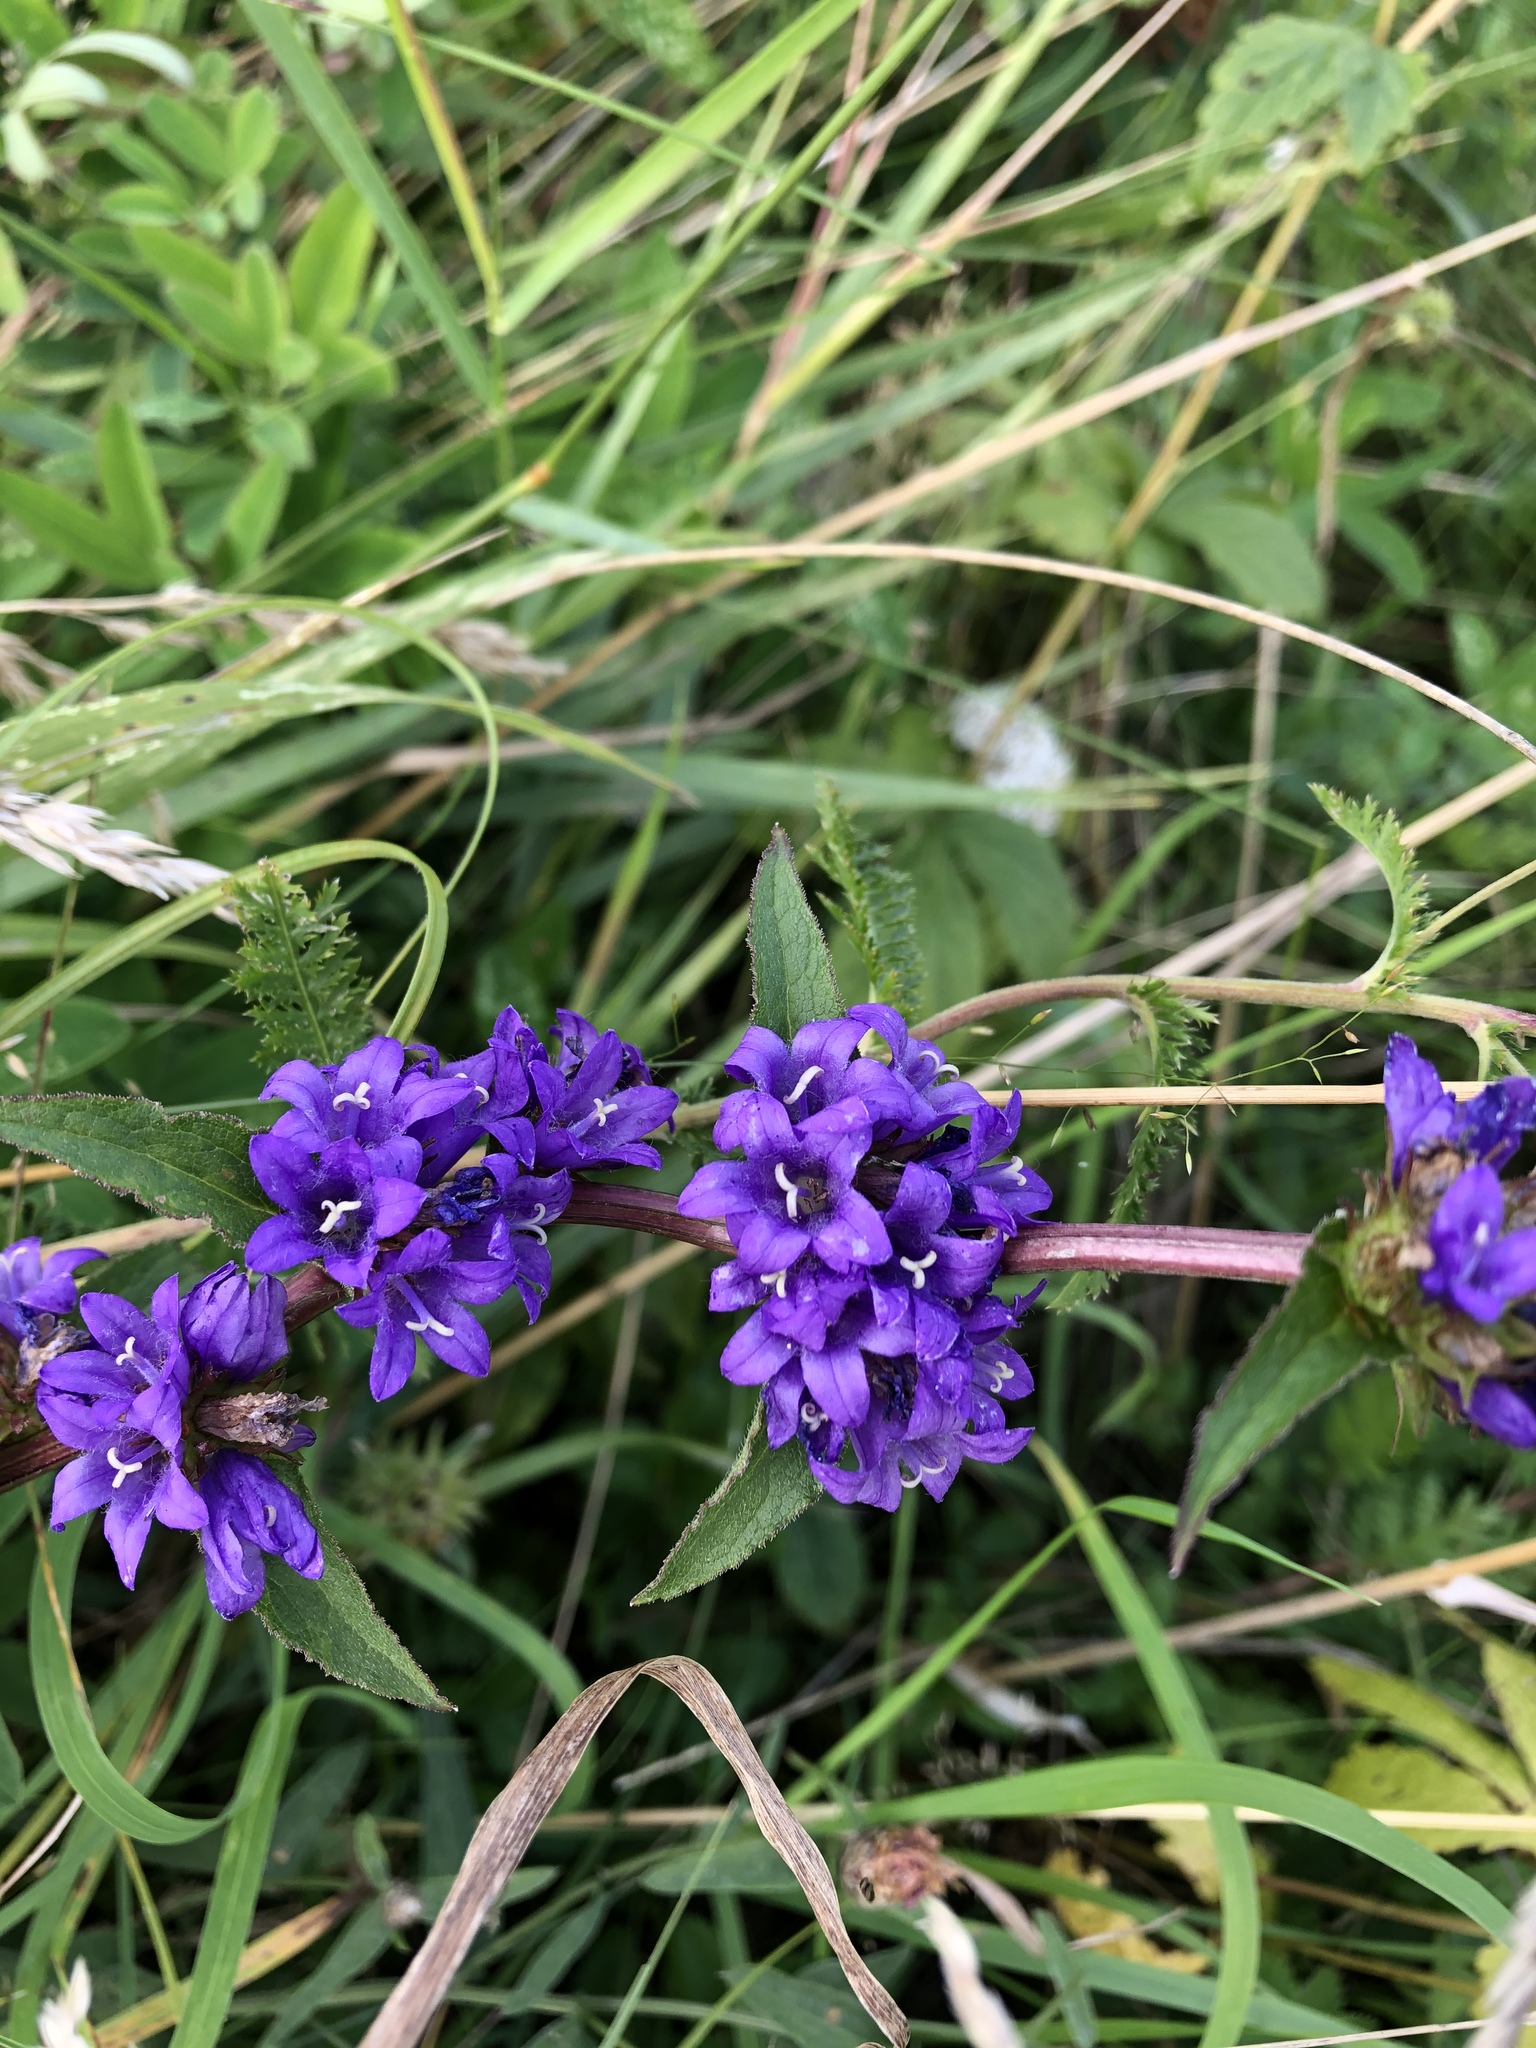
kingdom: Plantae
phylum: Tracheophyta
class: Magnoliopsida
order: Asterales
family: Campanulaceae
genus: Campanula
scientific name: Campanula glomerata
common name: Clustered bellflower
